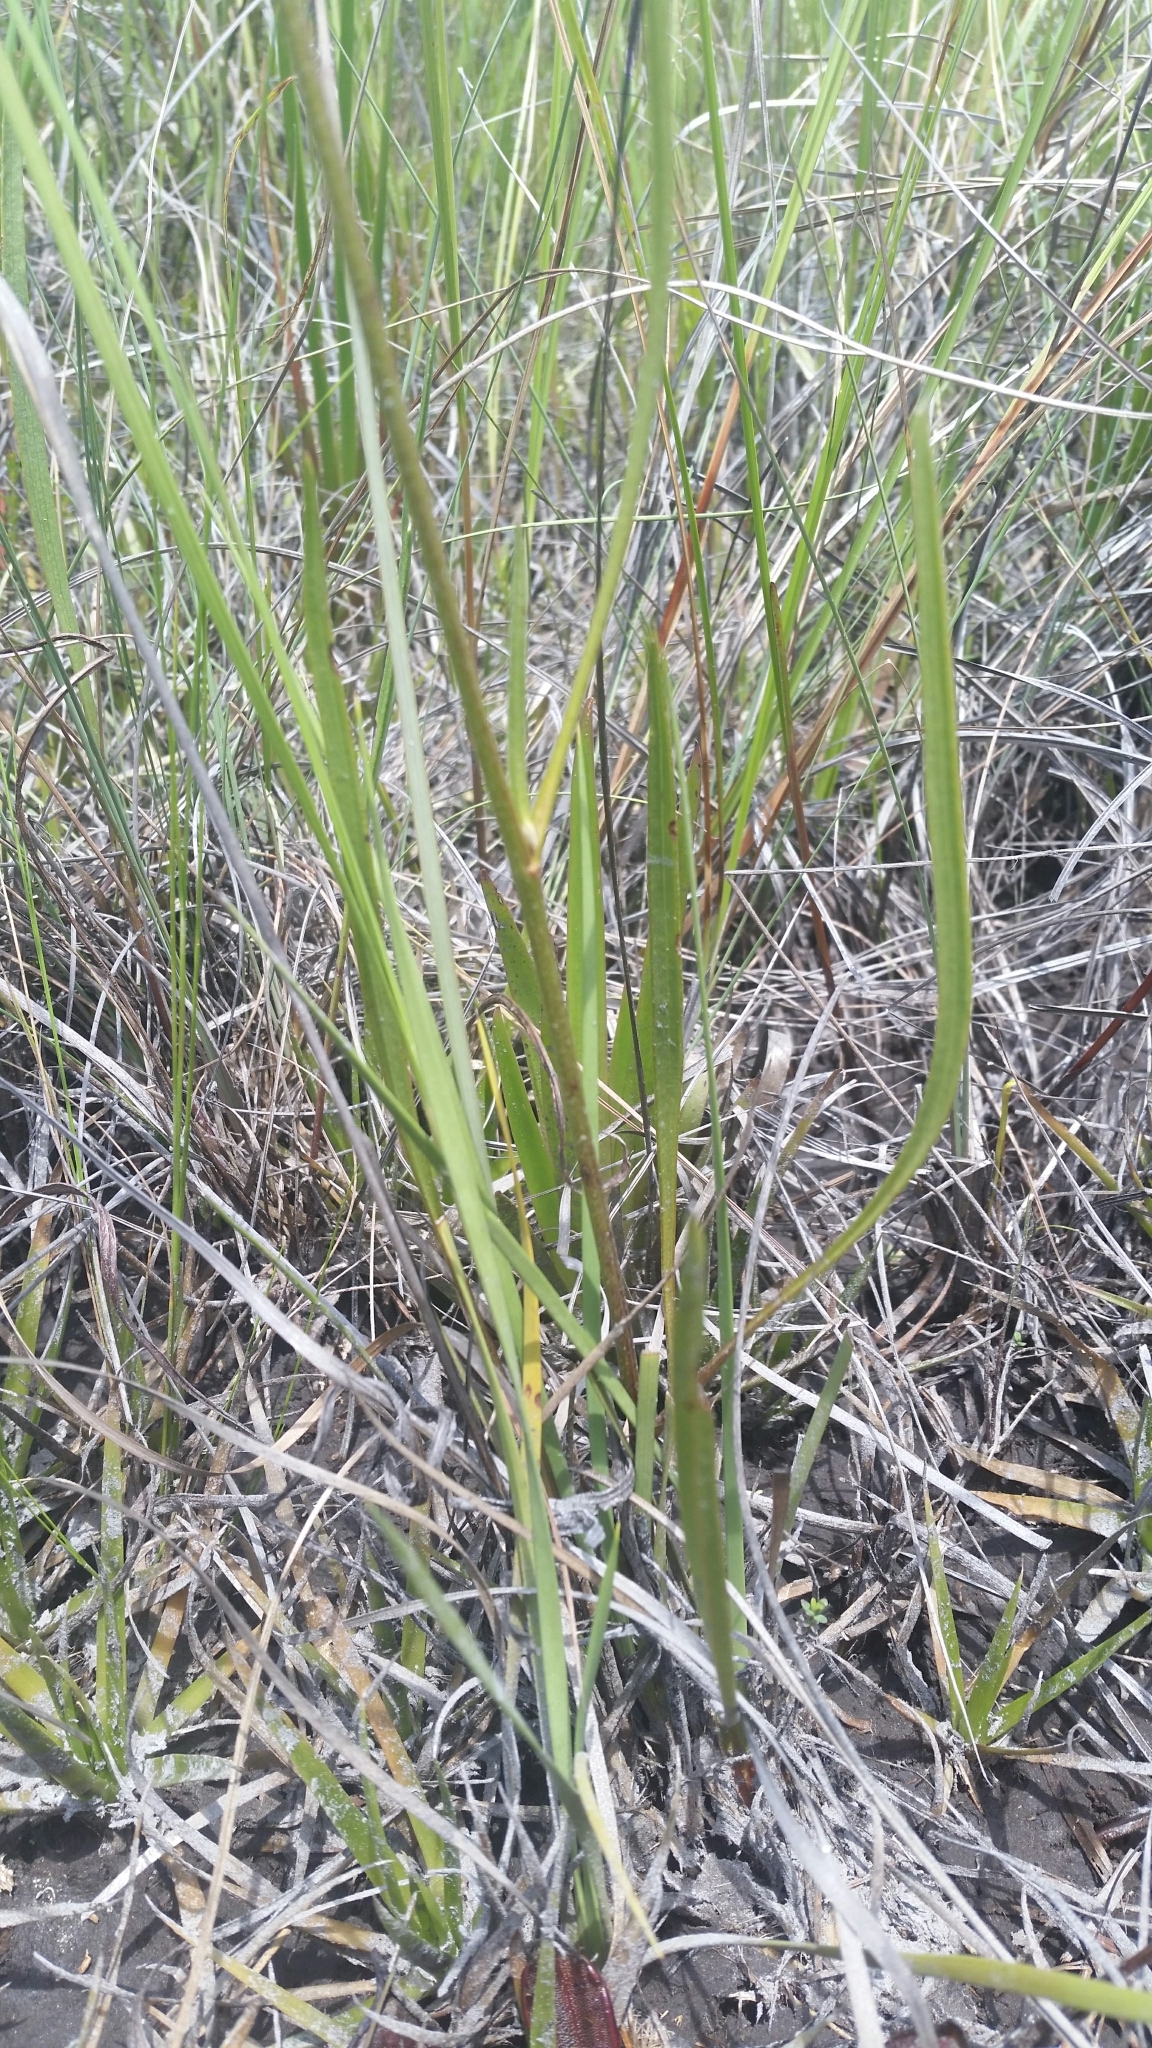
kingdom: Plantae
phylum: Tracheophyta
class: Magnoliopsida
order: Asterales
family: Asteraceae
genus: Rudbeckia
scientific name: Rudbeckia graminifolia
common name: Grass-leaf coneflower
